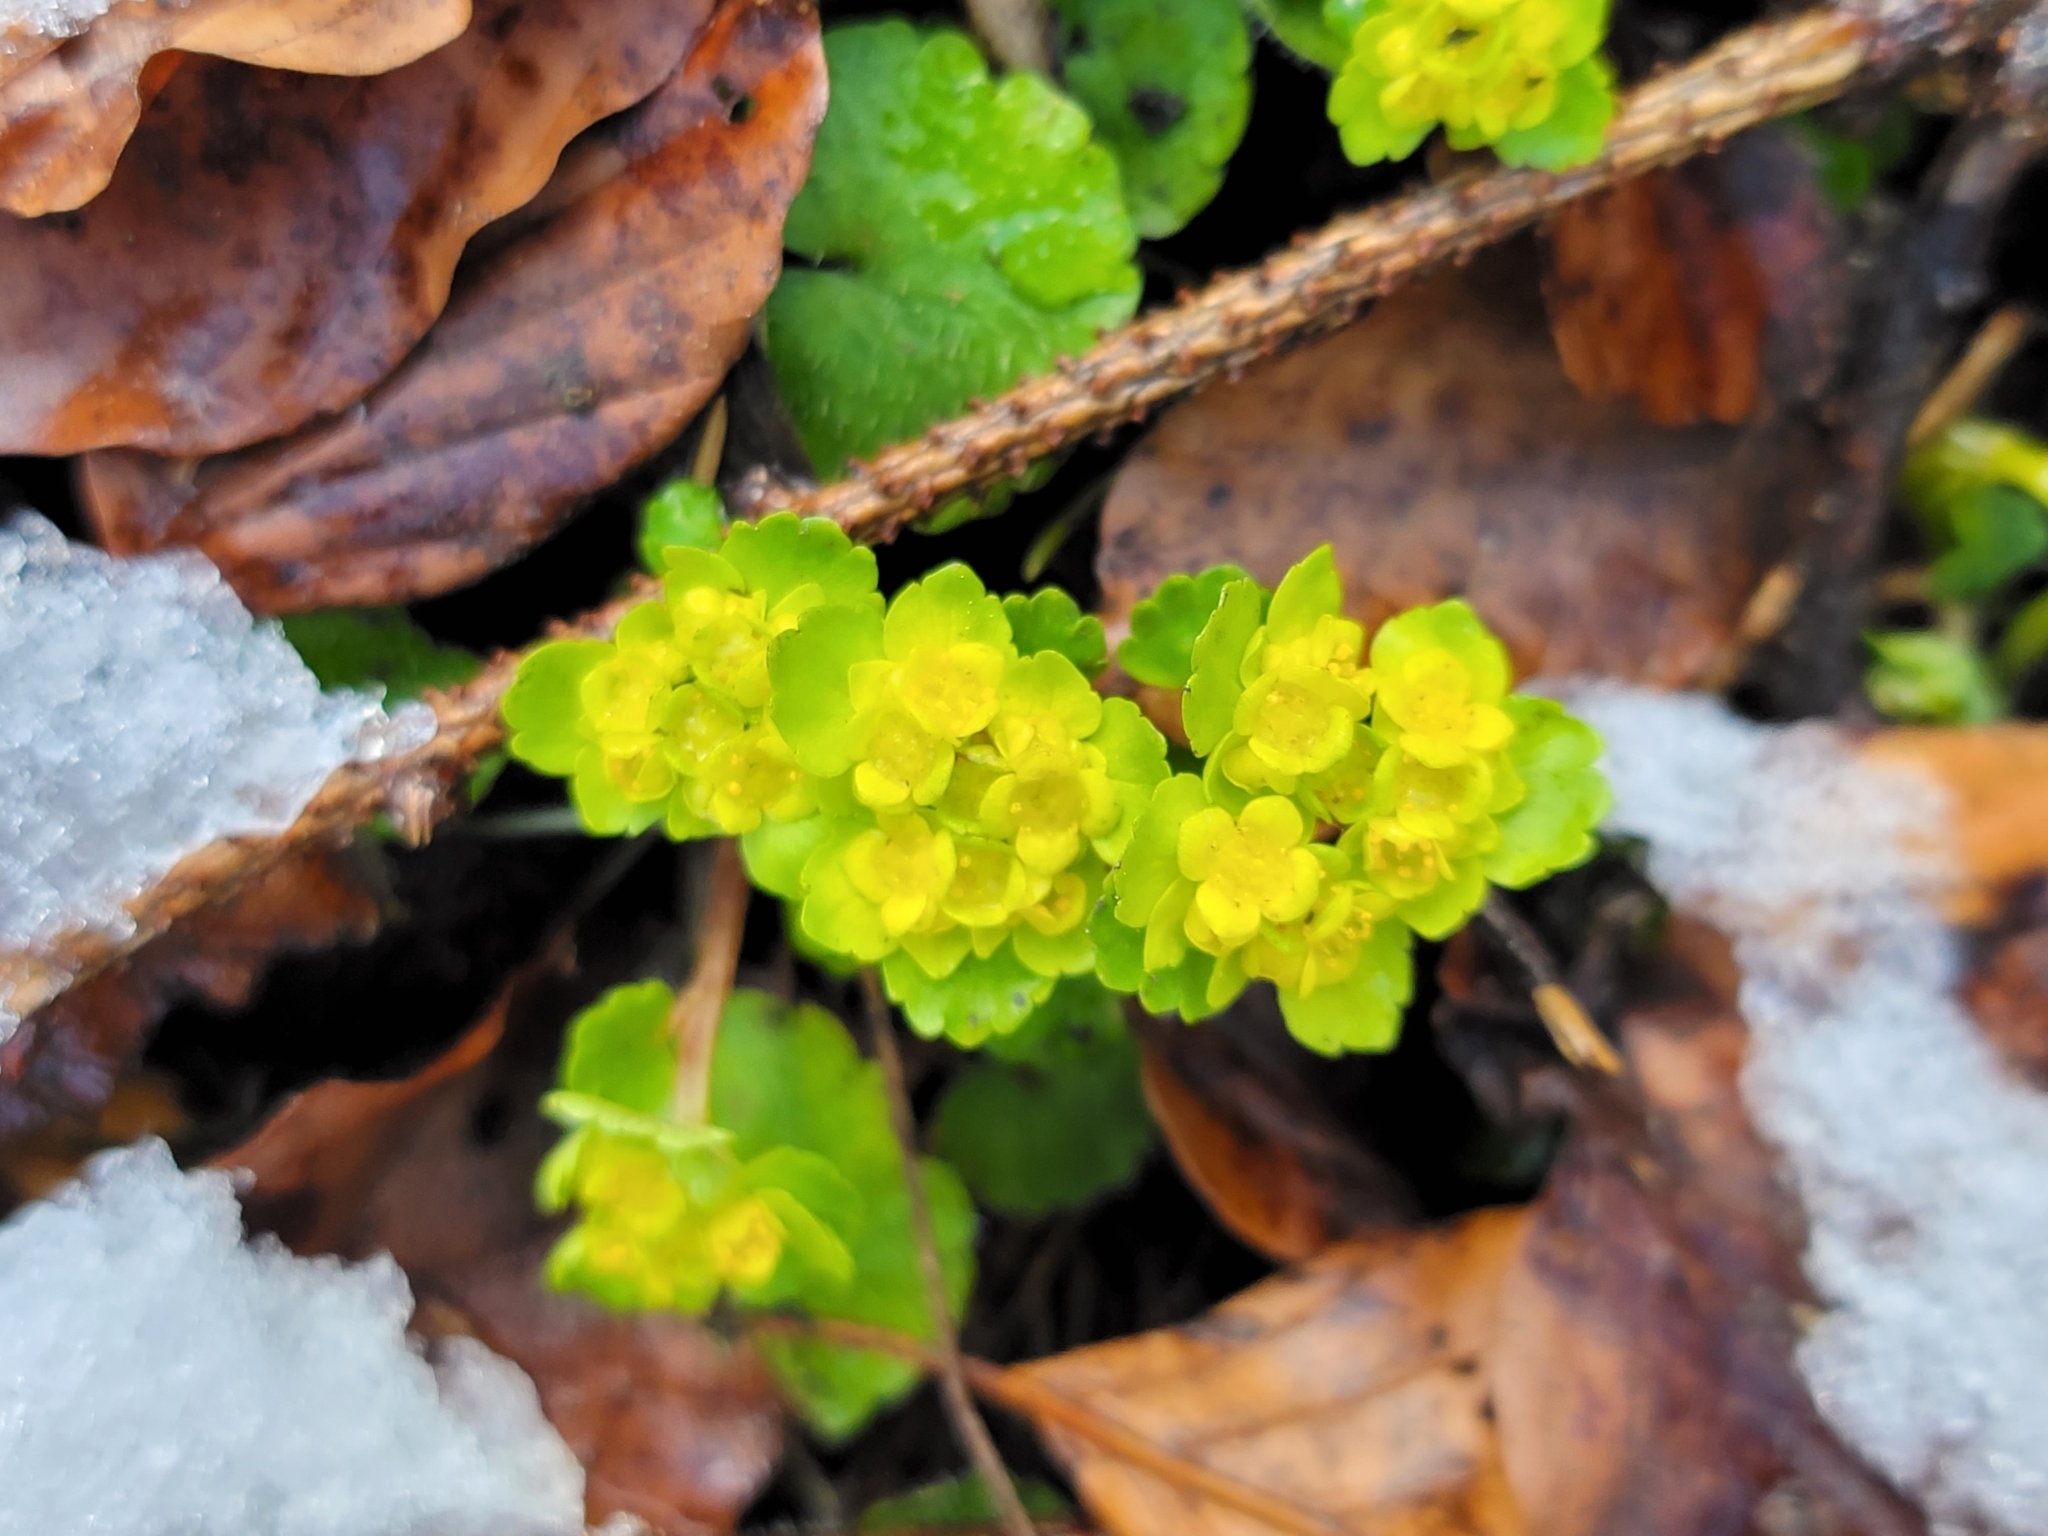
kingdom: Plantae
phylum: Tracheophyta
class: Magnoliopsida
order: Saxifragales
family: Saxifragaceae
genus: Chrysosplenium
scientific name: Chrysosplenium alternifolium
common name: Alternate-leaved golden-saxifrage
